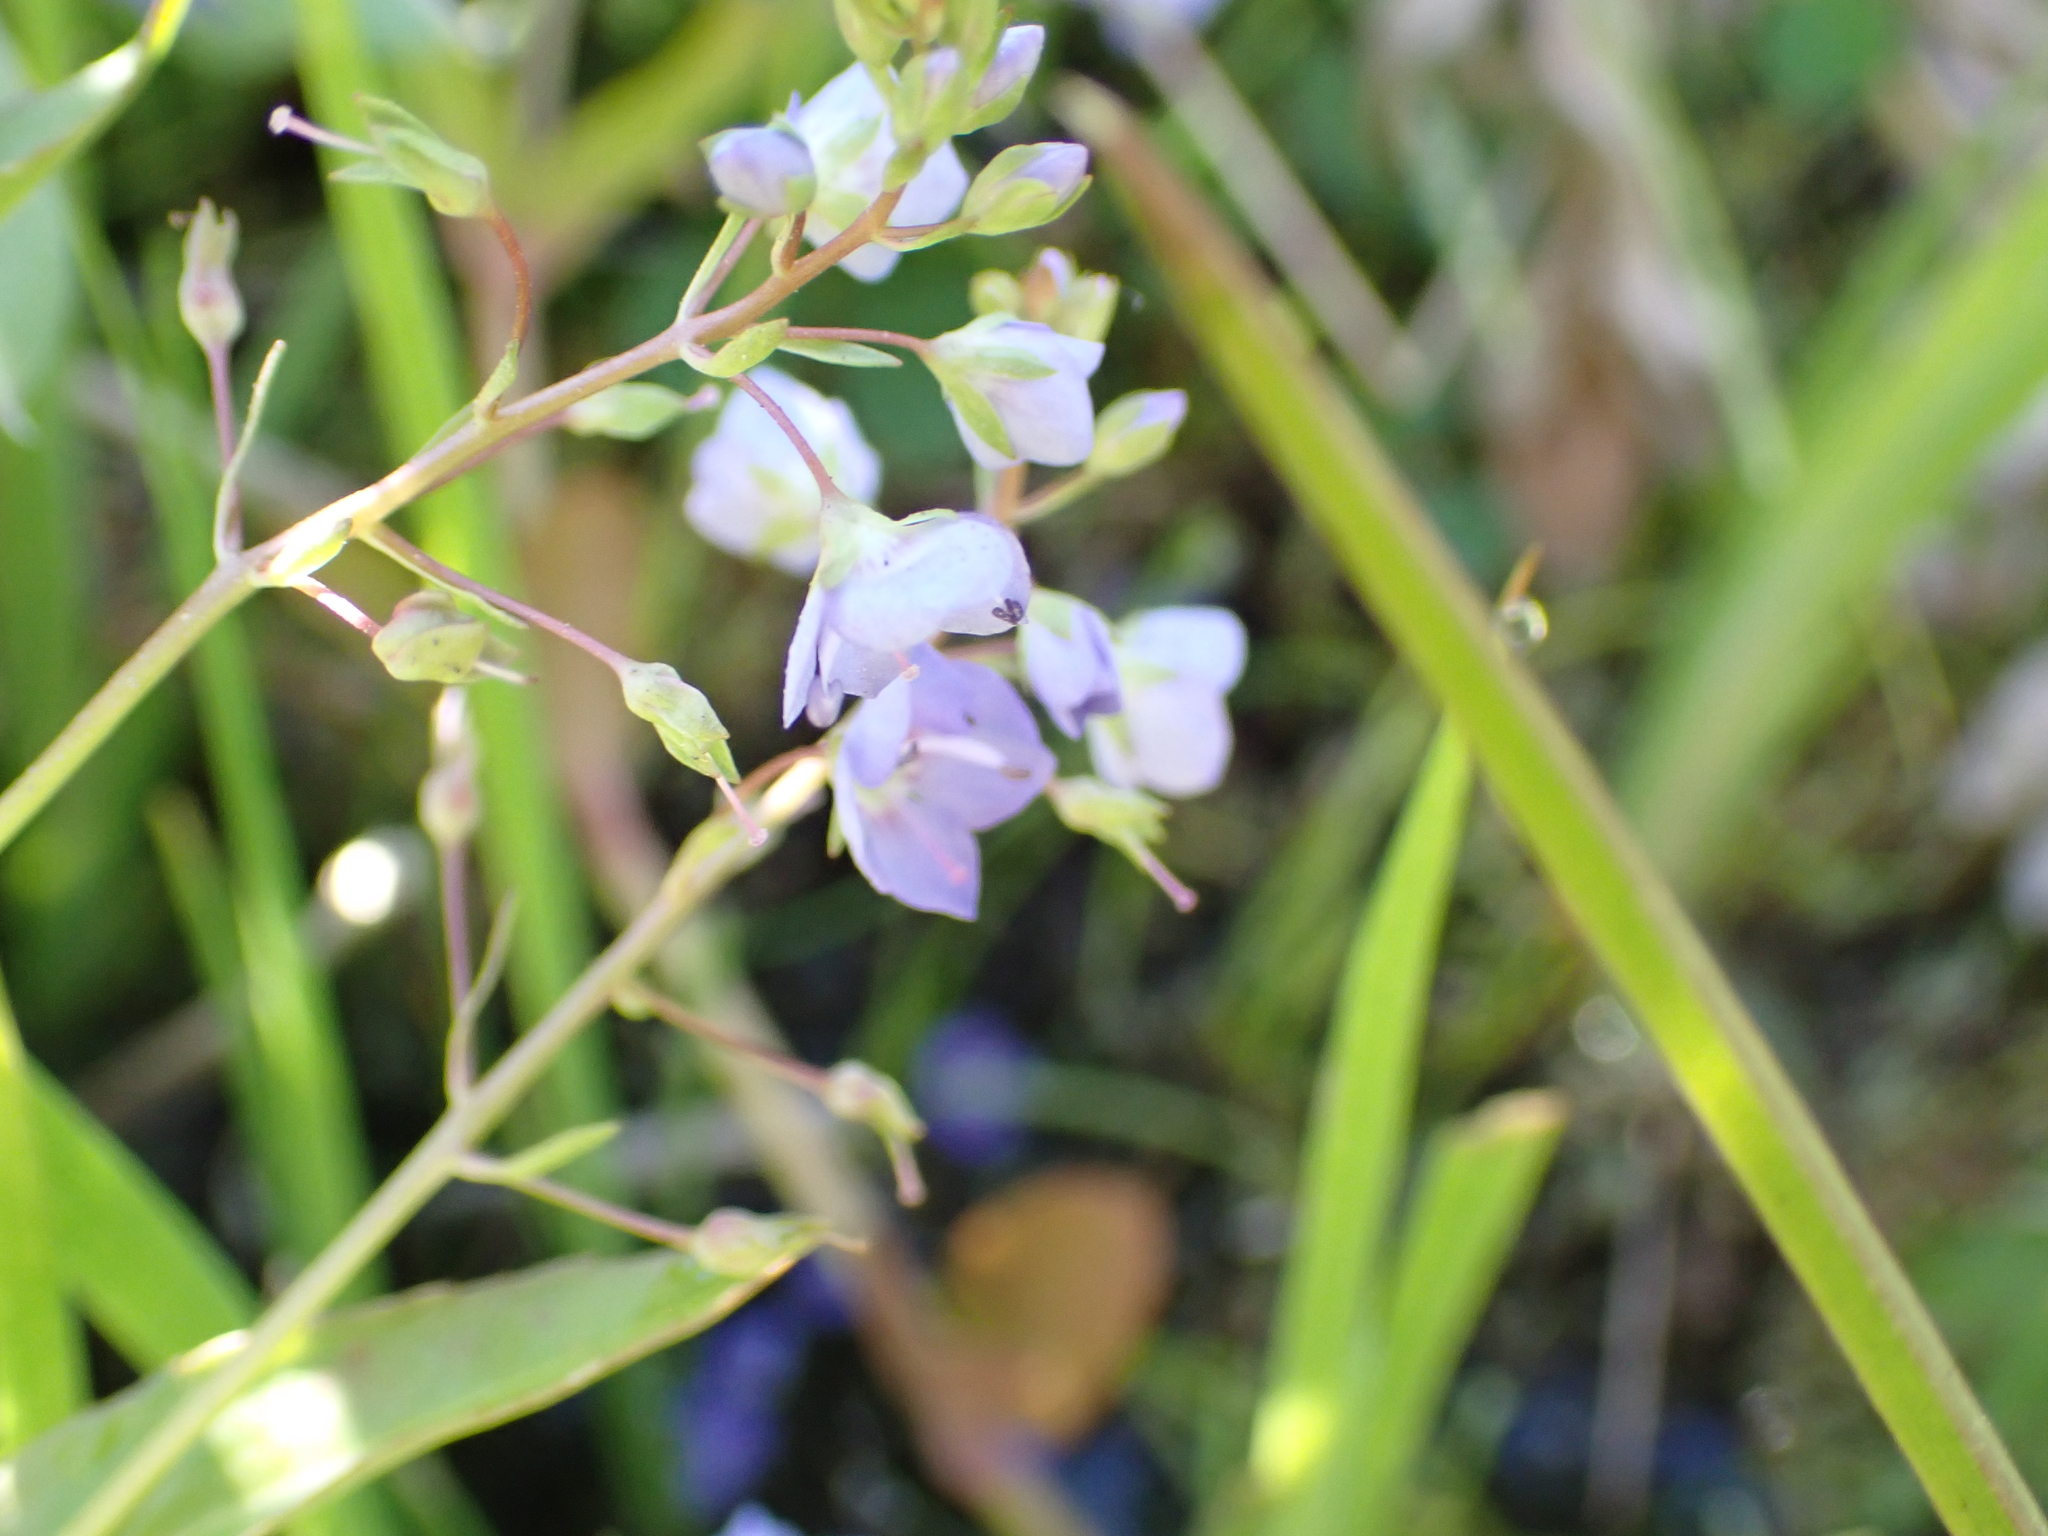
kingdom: Plantae
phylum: Tracheophyta
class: Magnoliopsida
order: Lamiales
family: Plantaginaceae
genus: Veronica
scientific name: Veronica americana
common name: American brooklime
